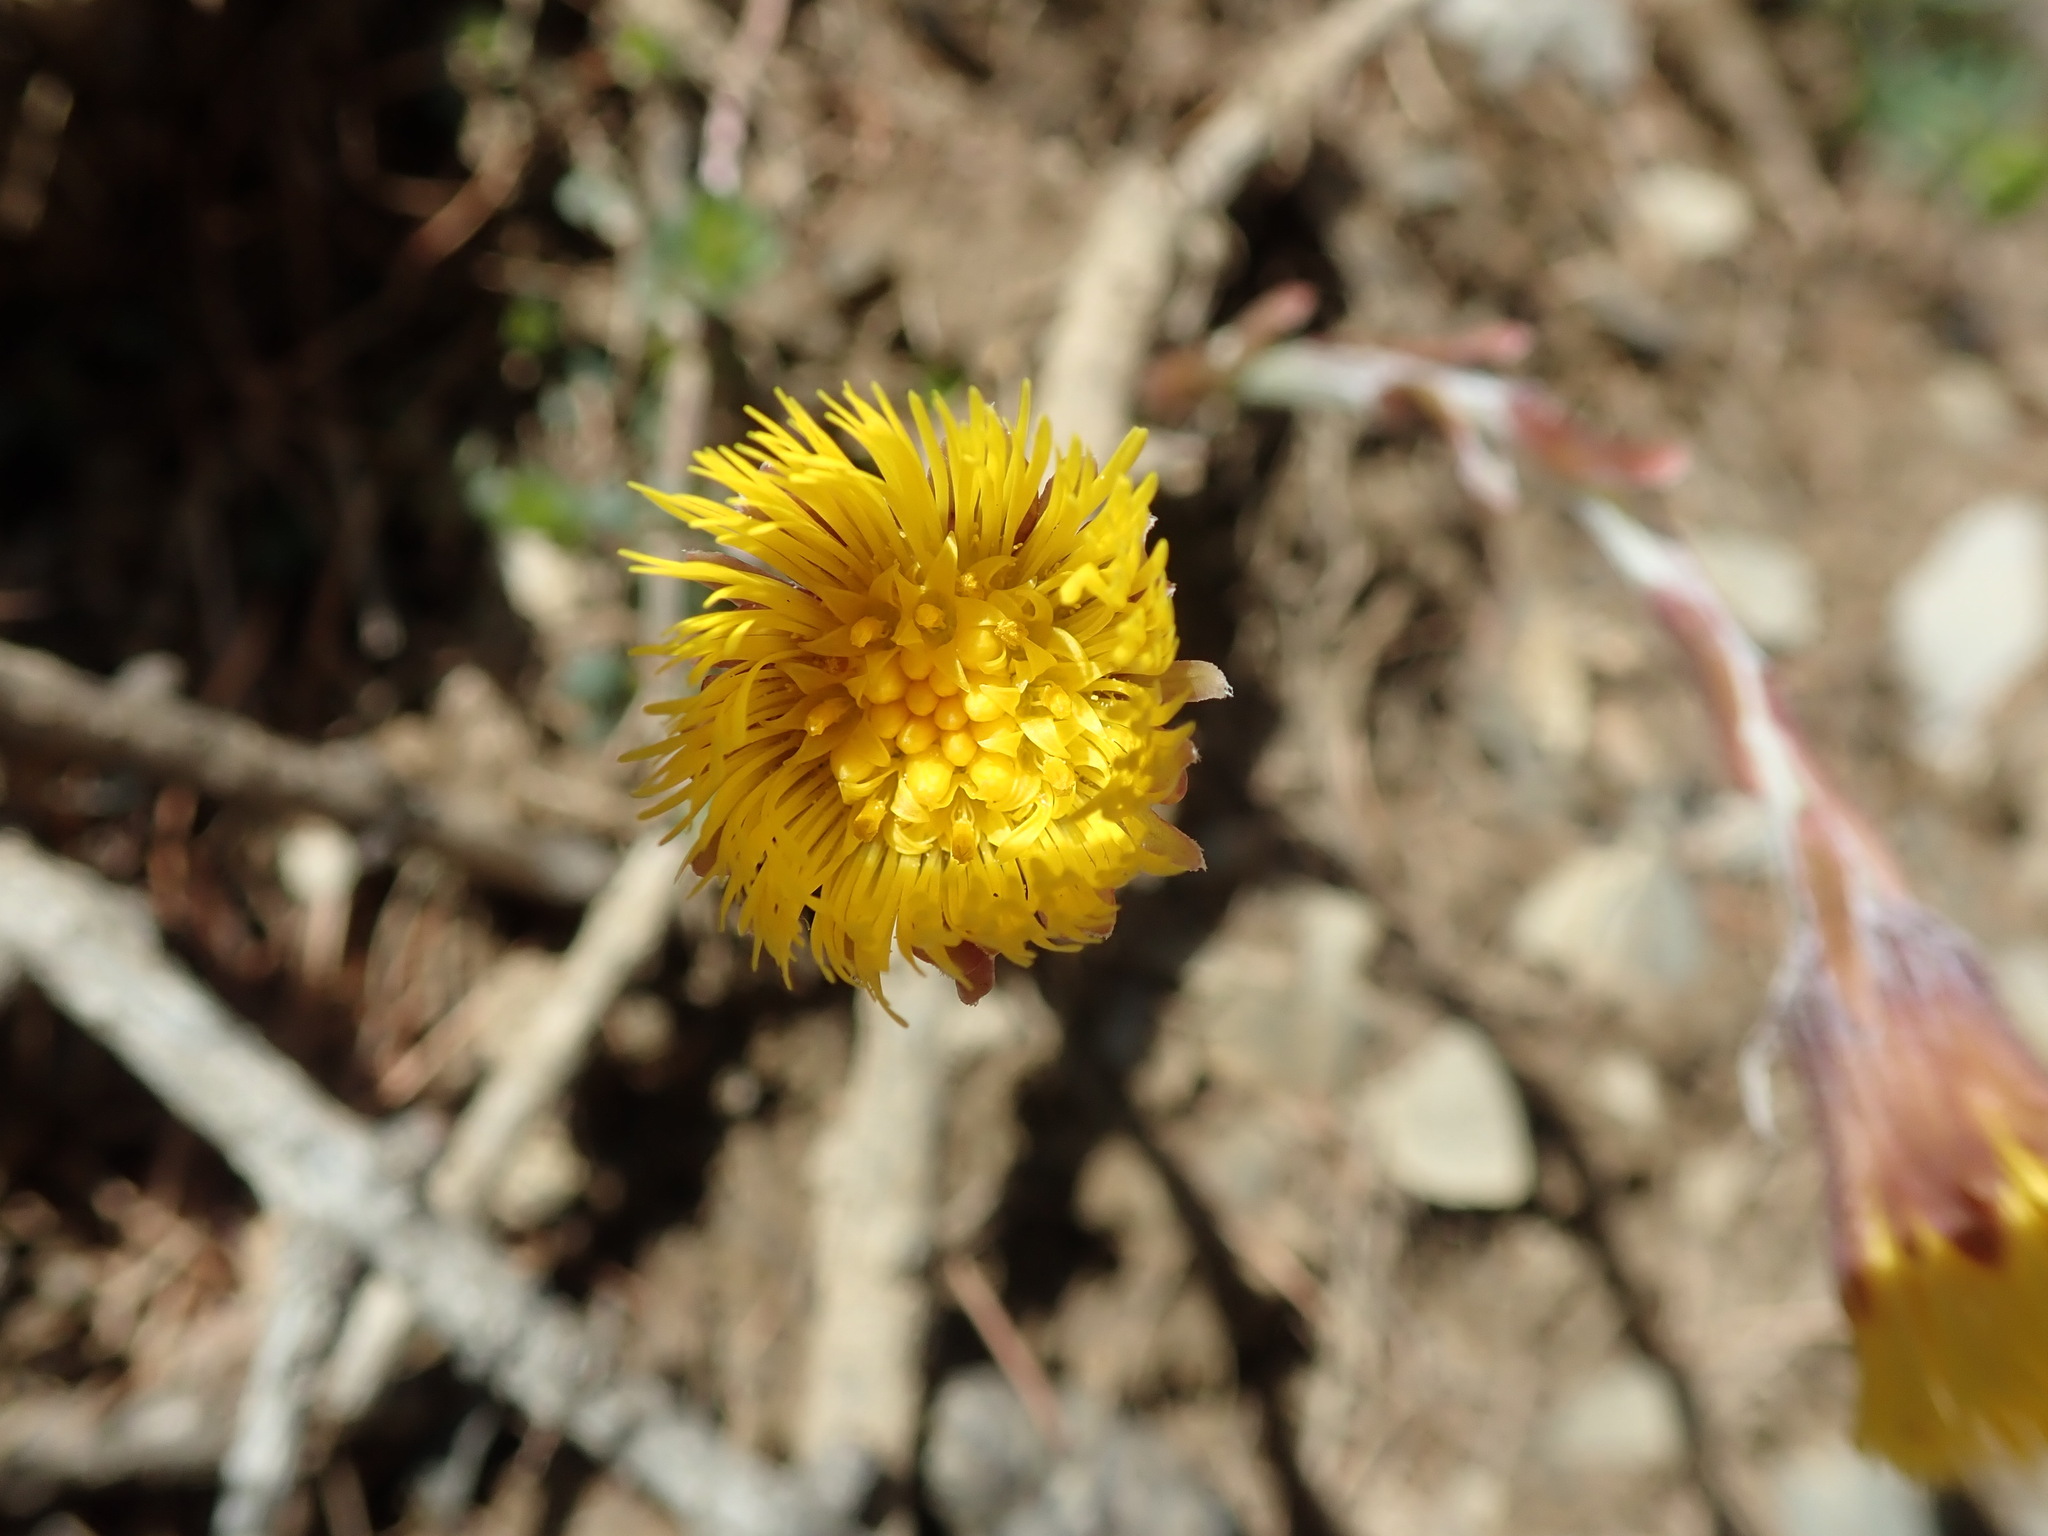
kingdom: Plantae
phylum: Tracheophyta
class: Magnoliopsida
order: Asterales
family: Asteraceae
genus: Tussilago
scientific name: Tussilago farfara
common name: Coltsfoot
